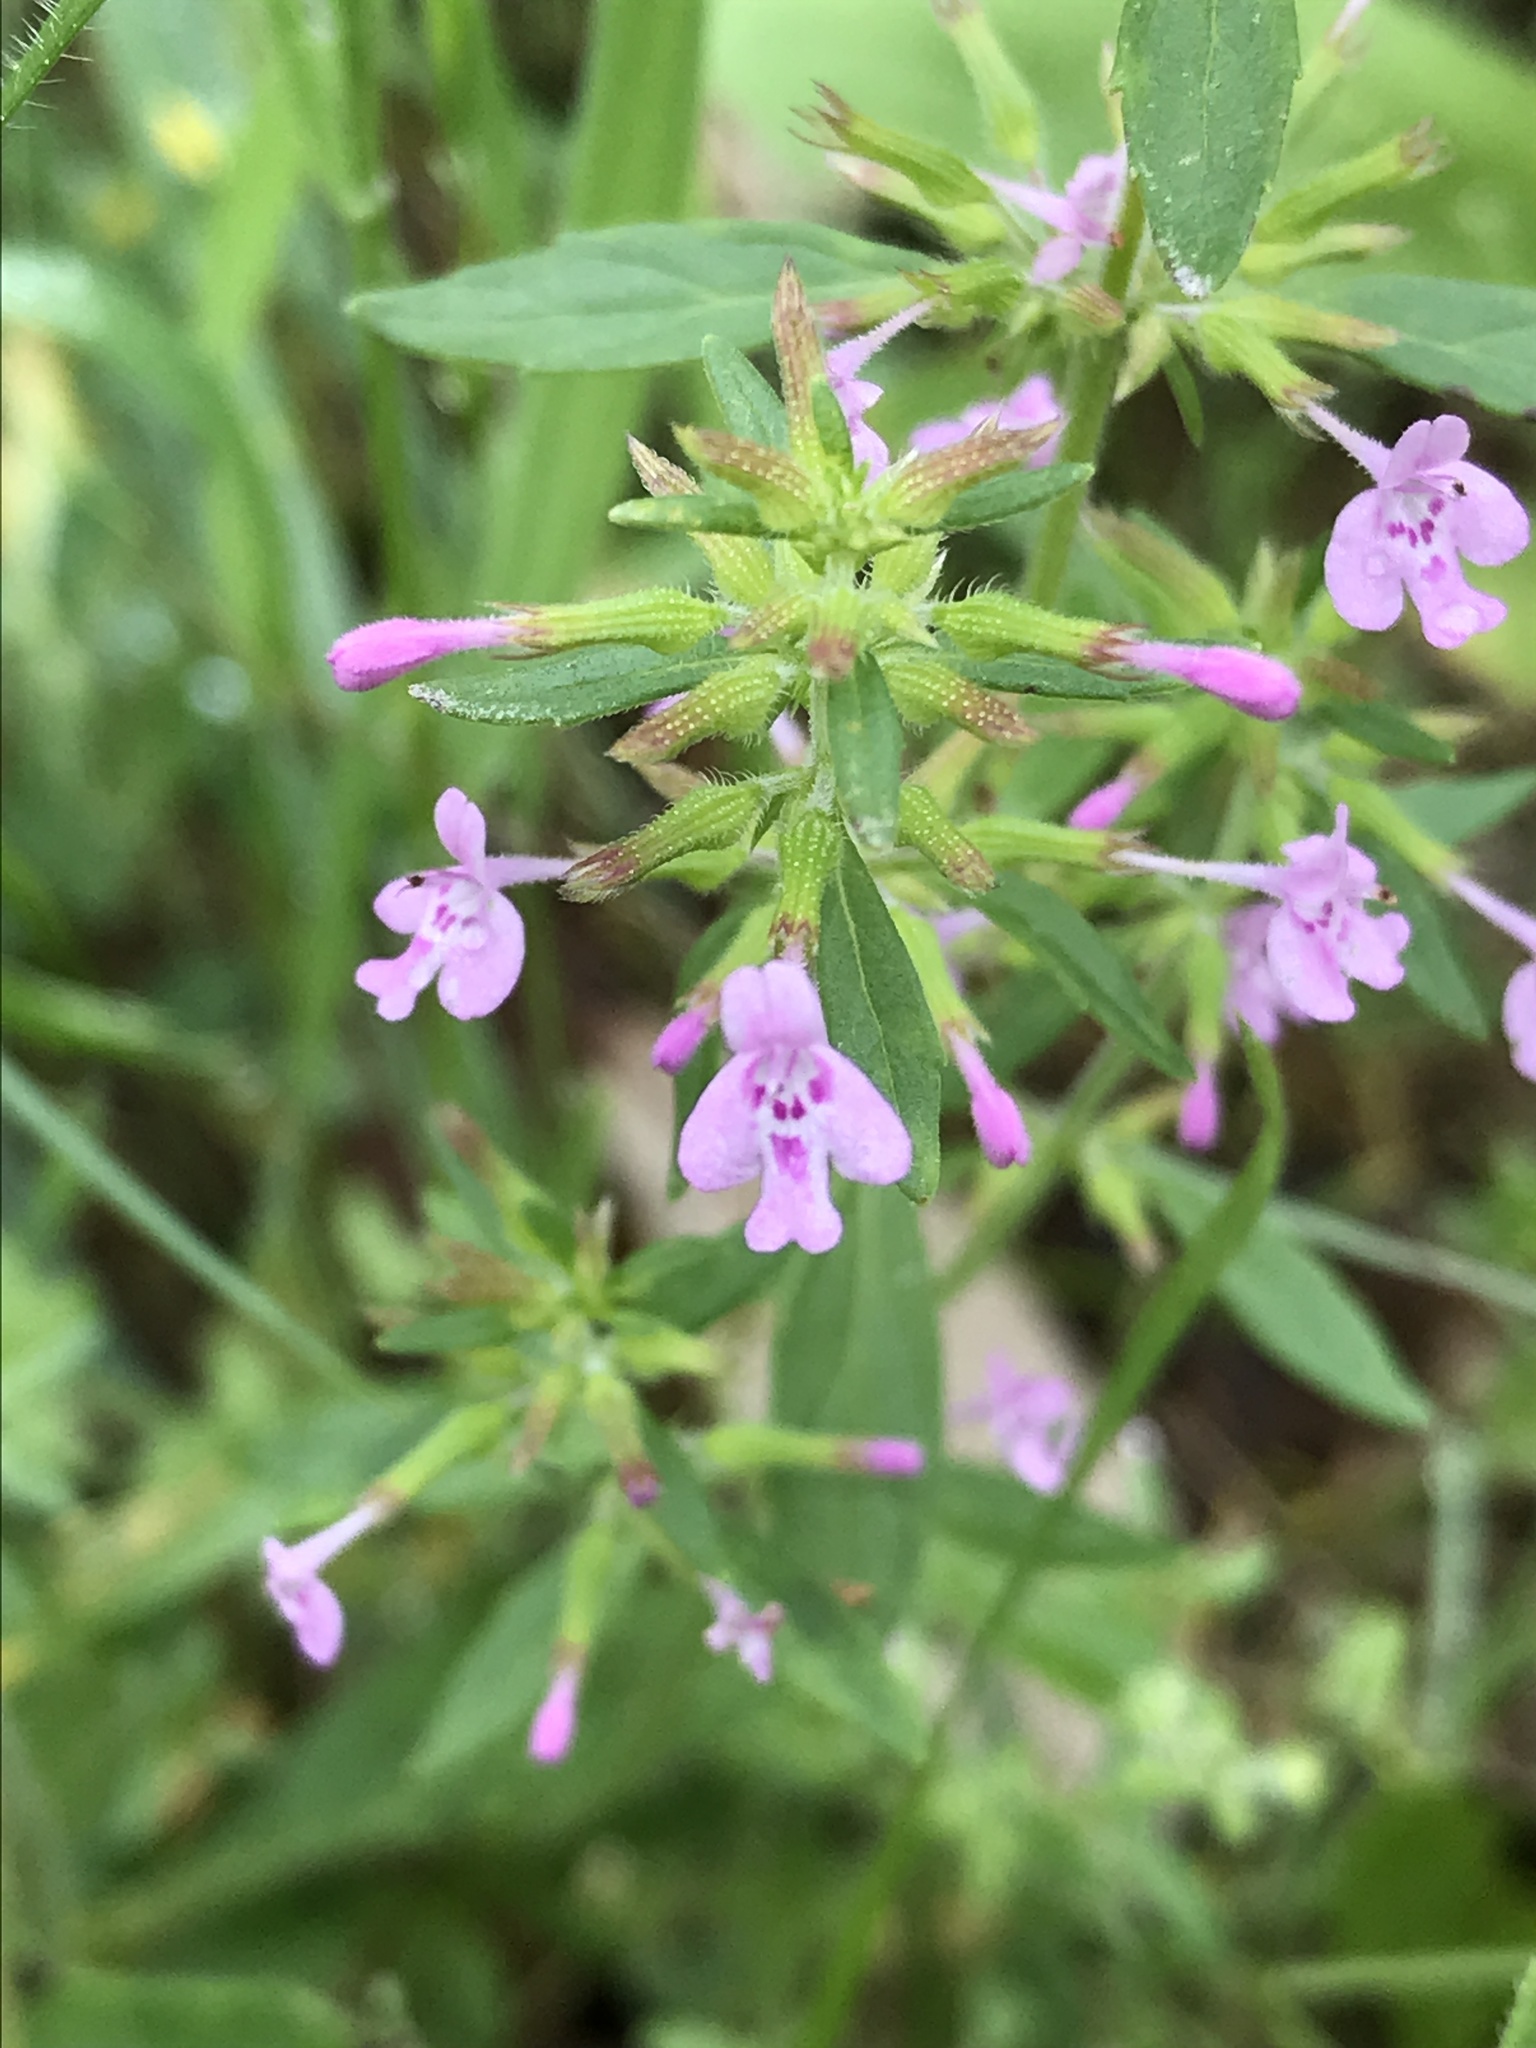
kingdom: Plantae
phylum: Tracheophyta
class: Magnoliopsida
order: Lamiales
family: Lamiaceae
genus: Hedeoma
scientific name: Hedeoma acinoides
